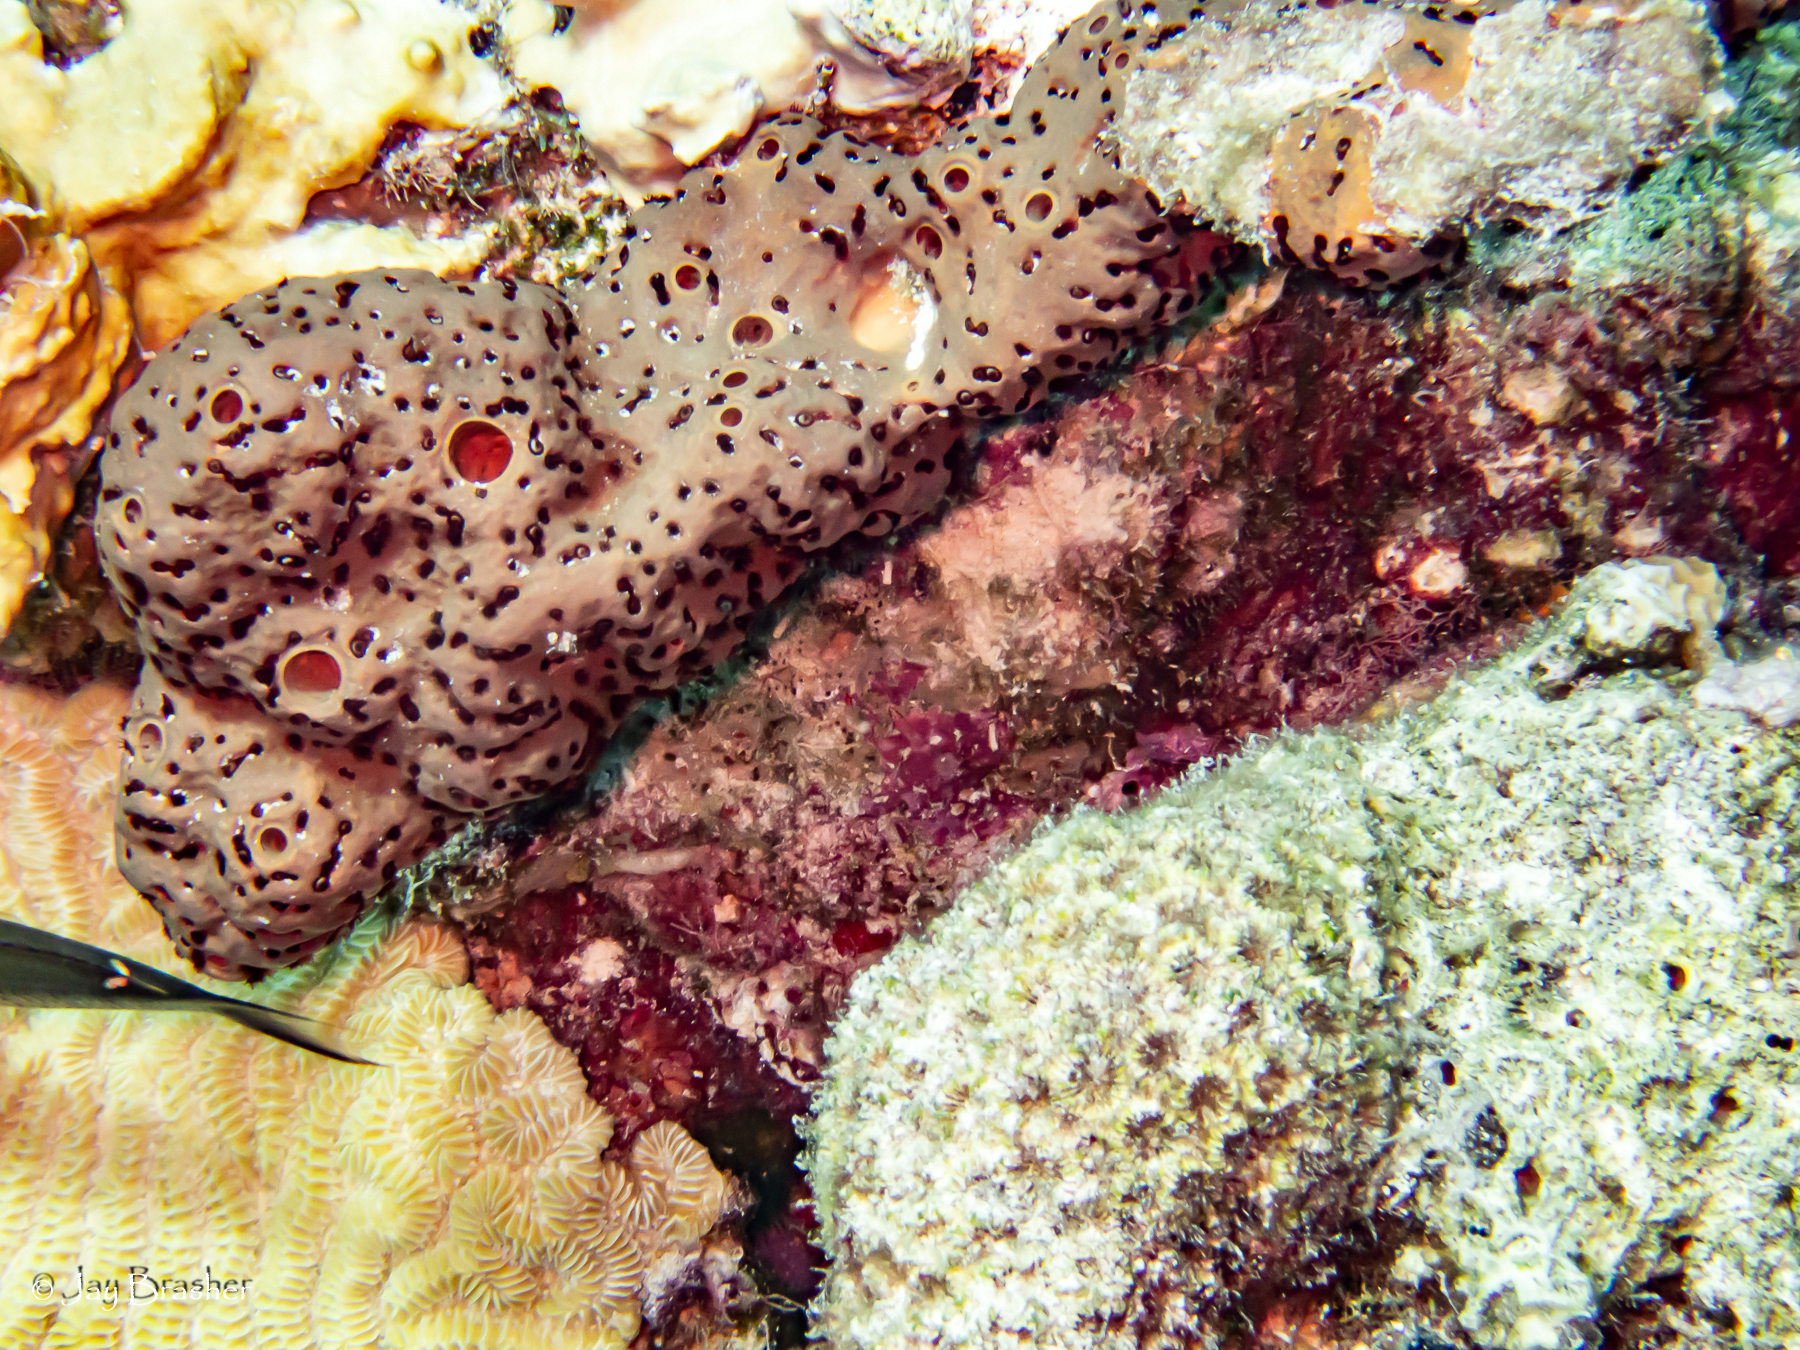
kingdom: Animalia
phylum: Porifera
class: Demospongiae
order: Agelasida
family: Agelasidae
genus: Agelas
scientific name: Agelas conifera
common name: Brown tube sponge
